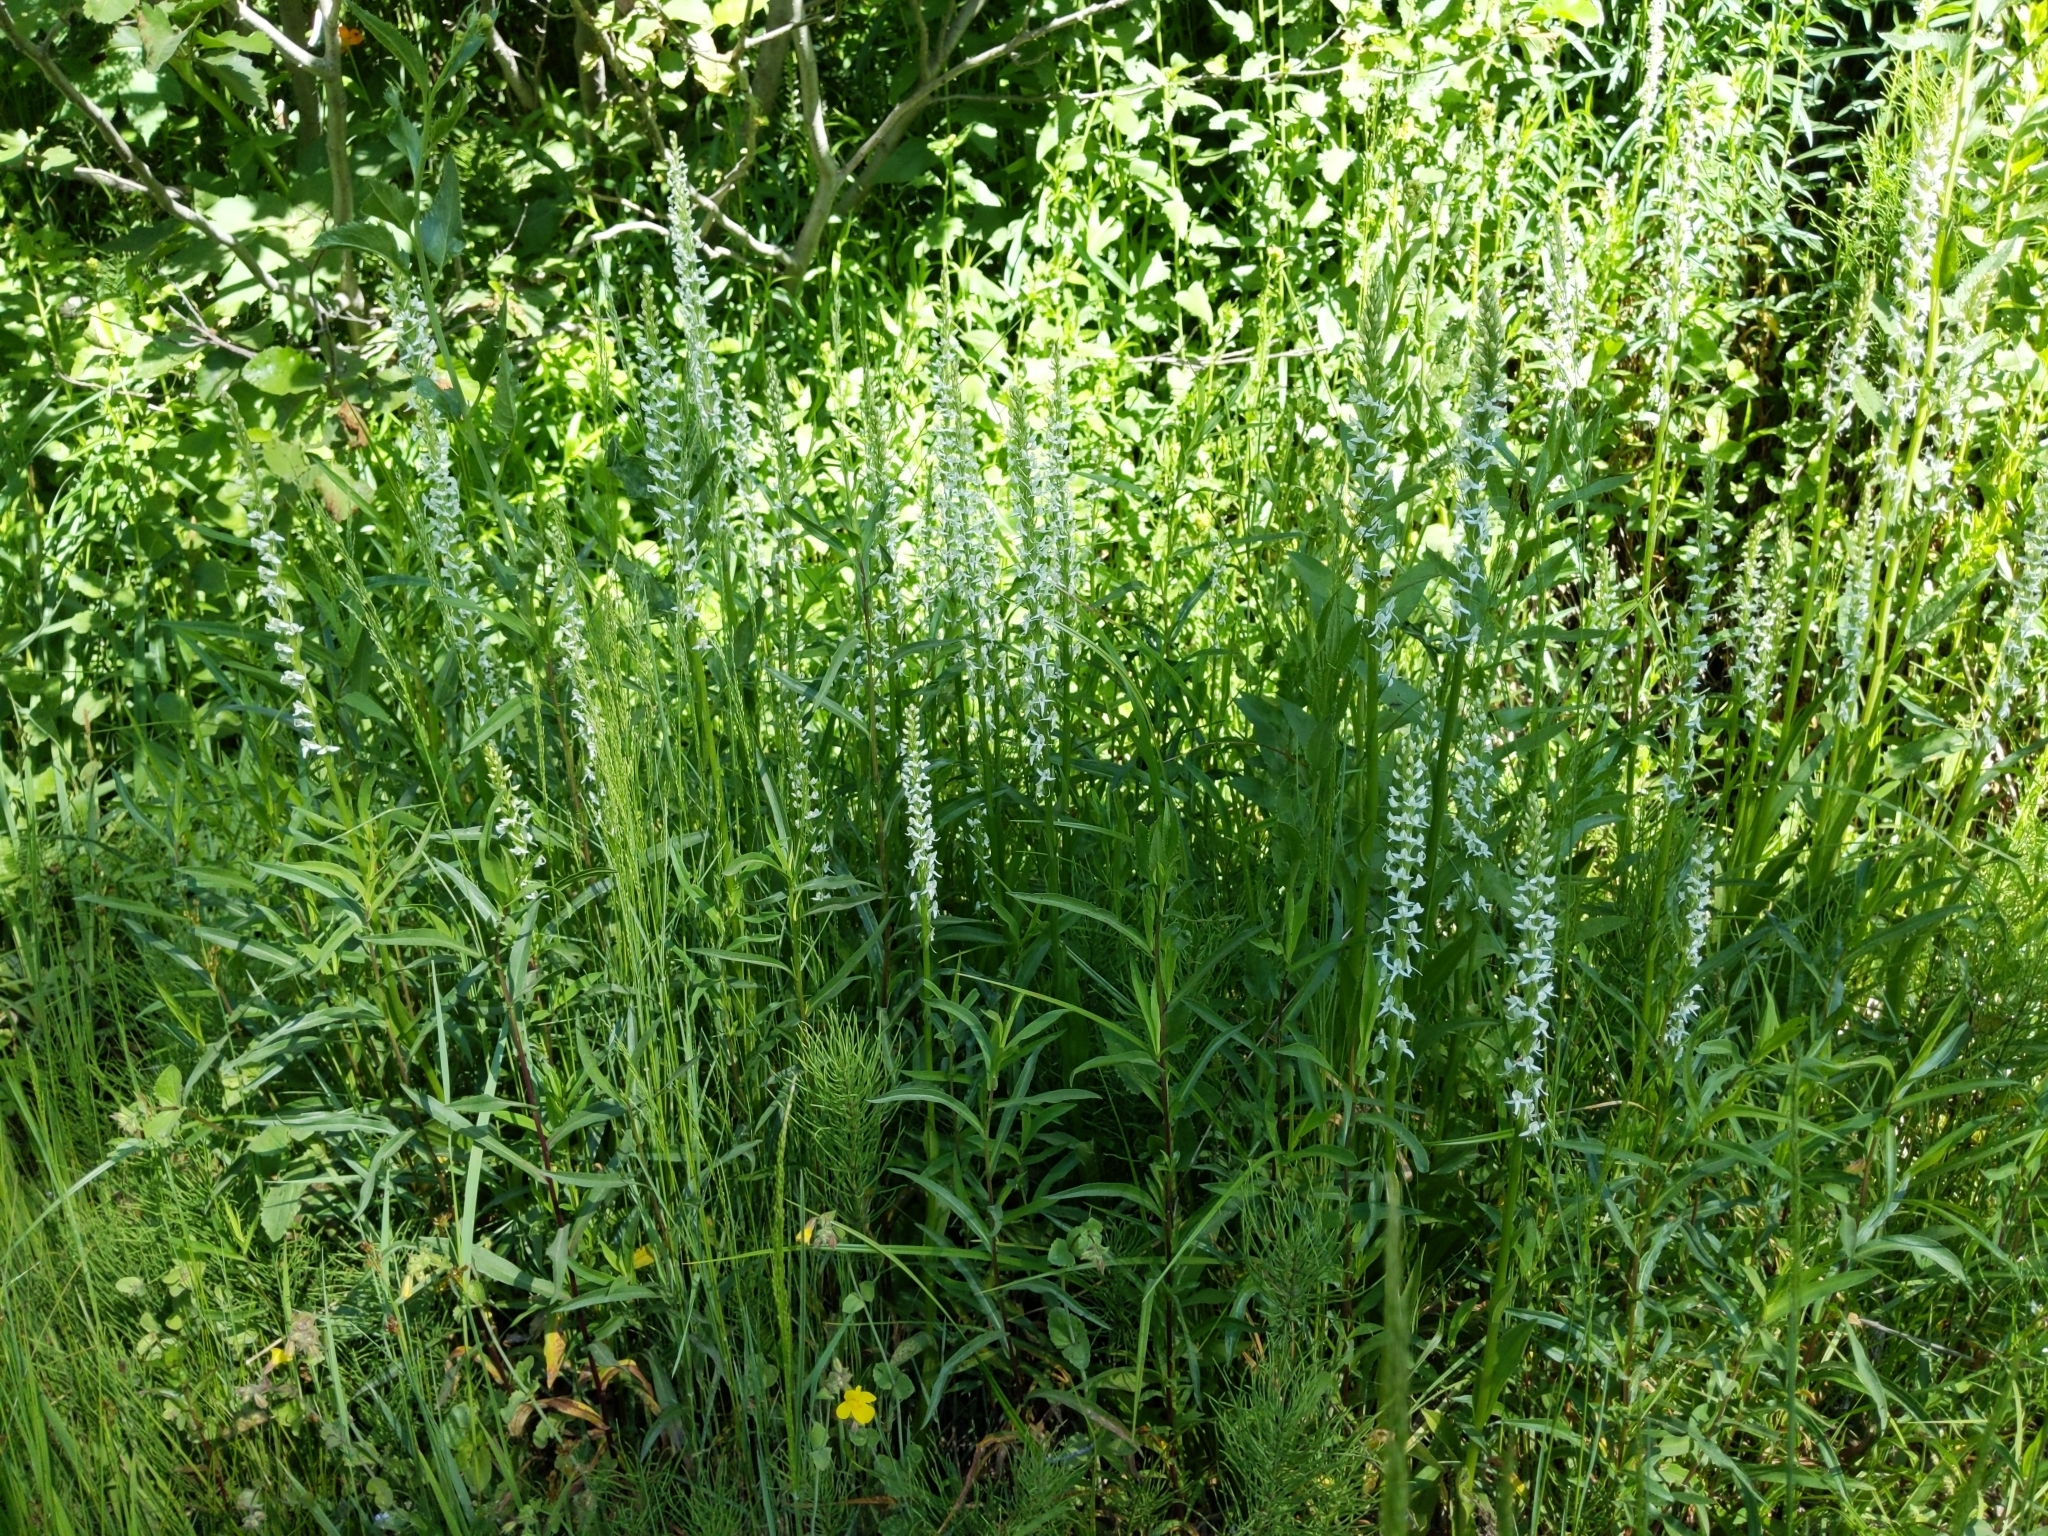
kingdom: Plantae
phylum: Tracheophyta
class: Liliopsida
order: Asparagales
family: Orchidaceae
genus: Platanthera
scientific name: Platanthera dilatata
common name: Bog candles
